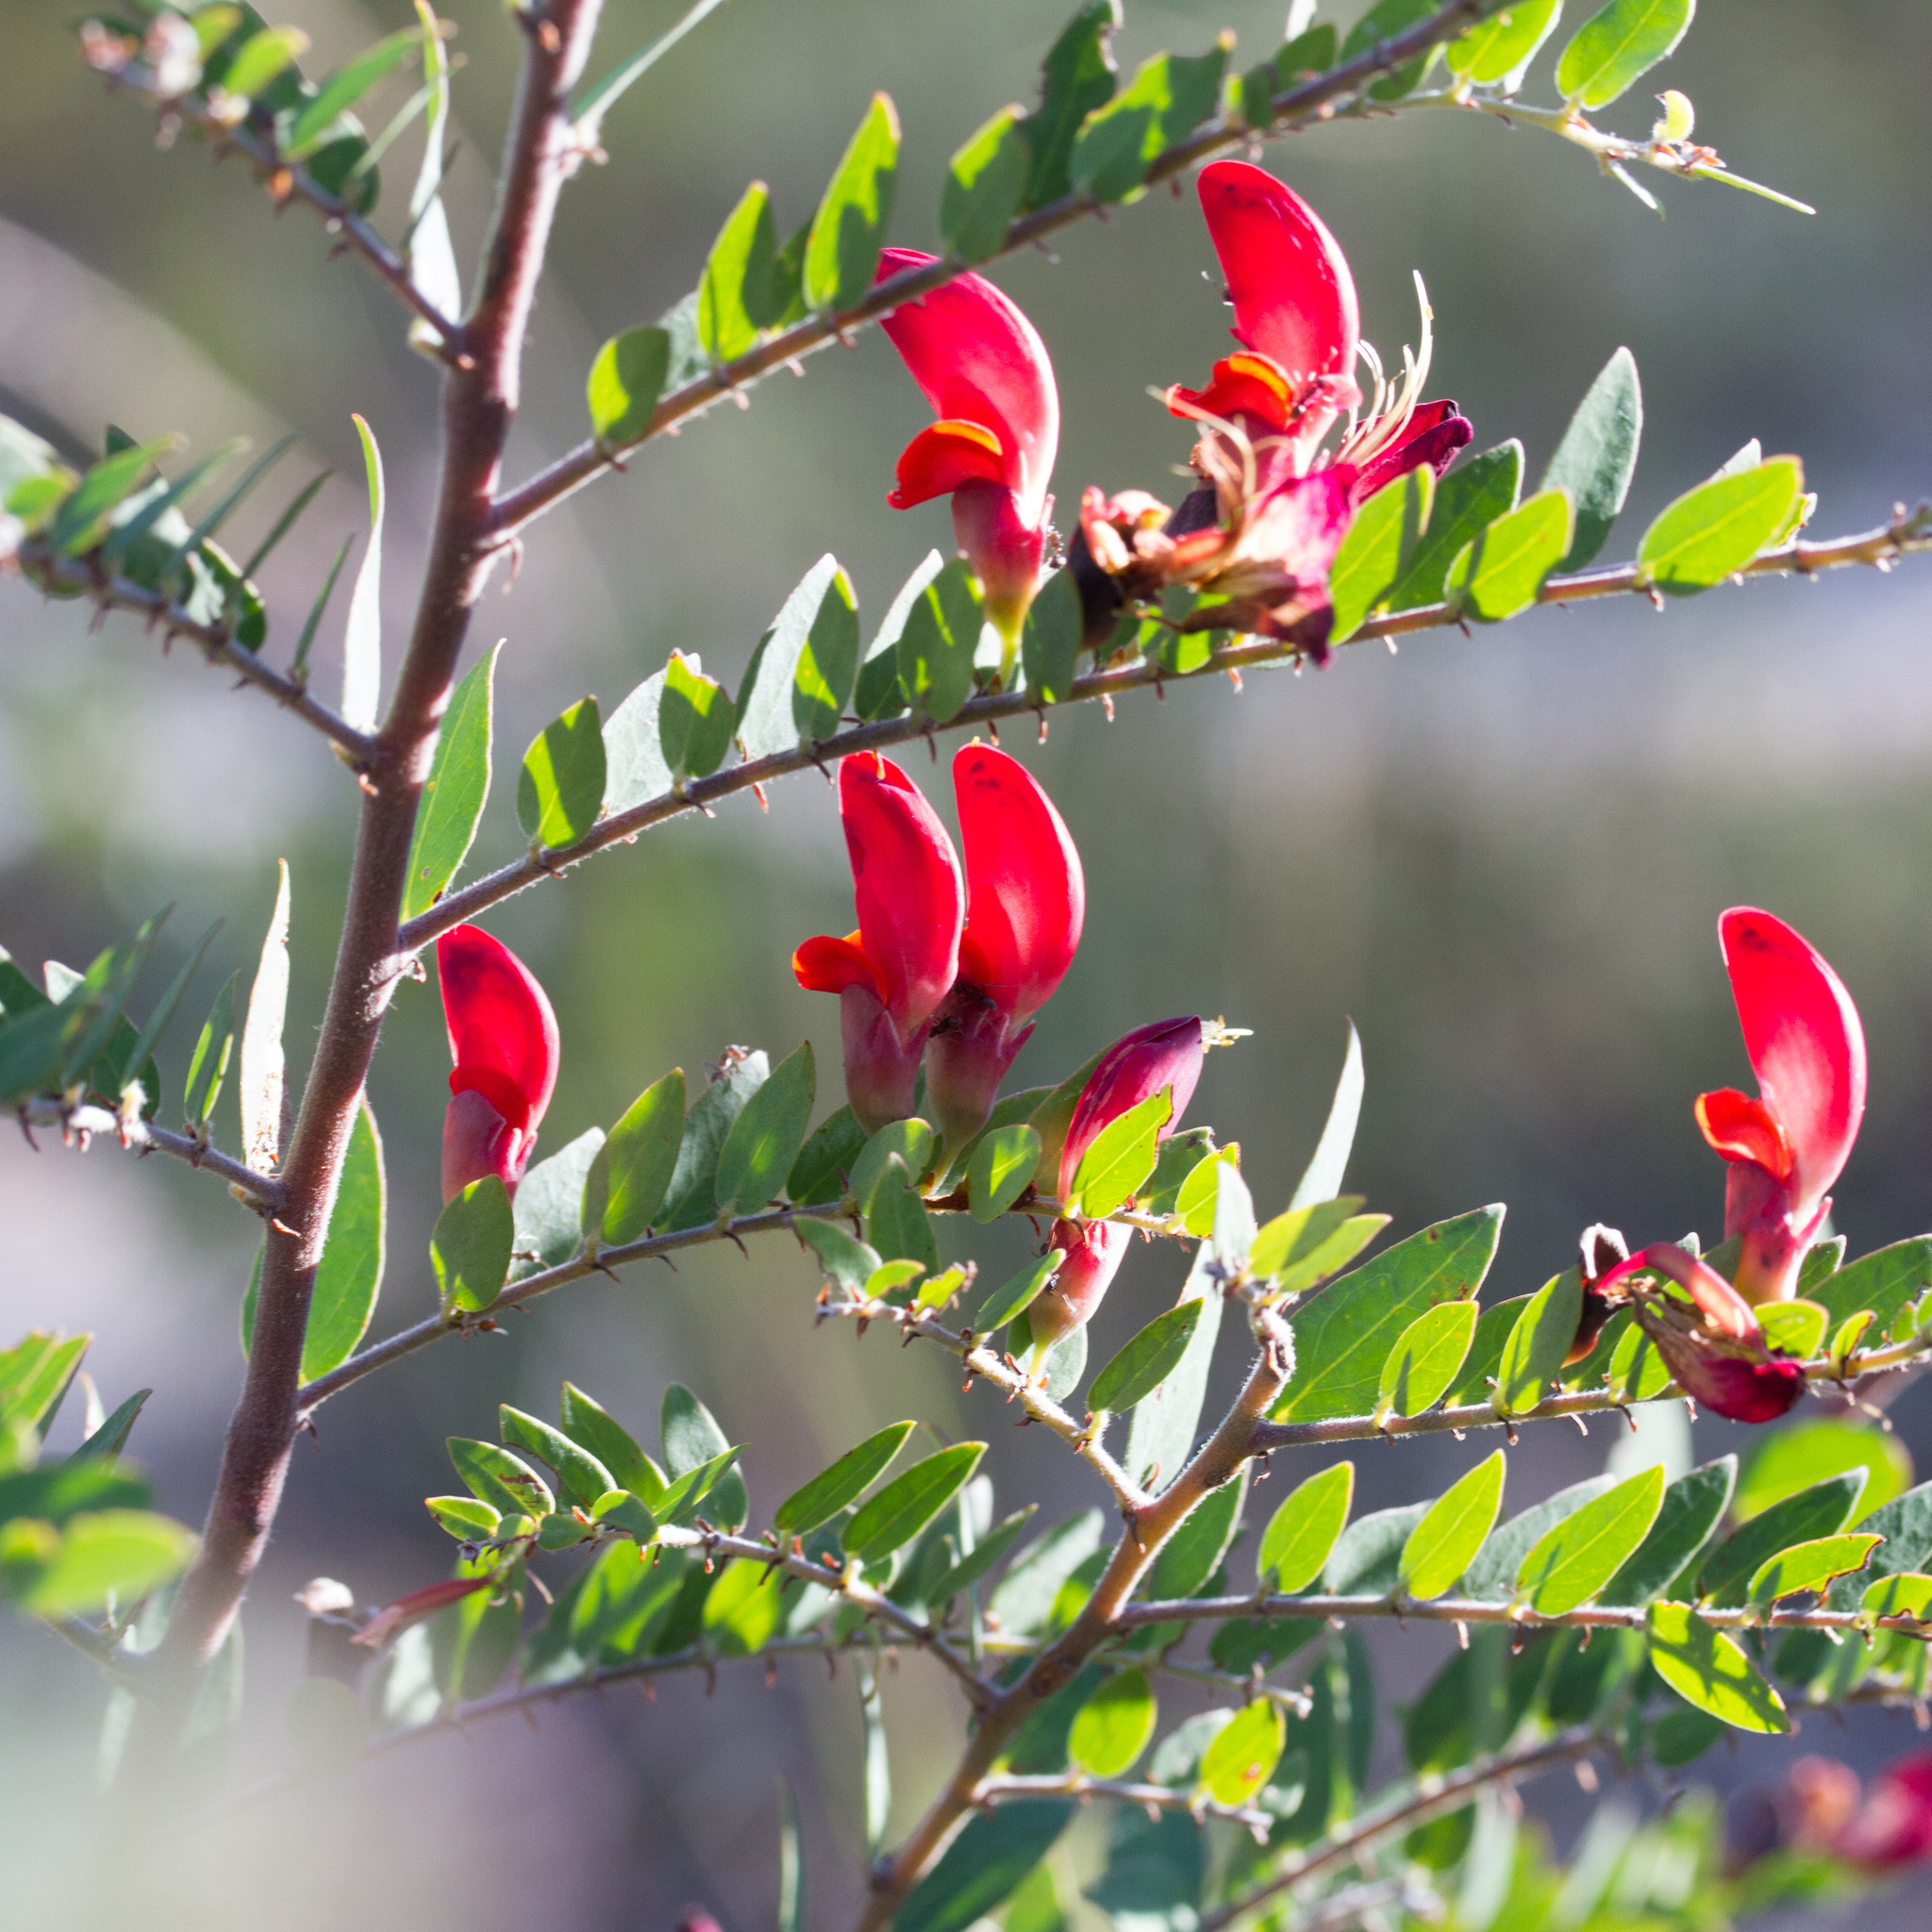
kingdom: Plantae
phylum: Tracheophyta
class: Magnoliopsida
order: Fabales
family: Fabaceae
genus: Bossiaea
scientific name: Bossiaea carinalis
